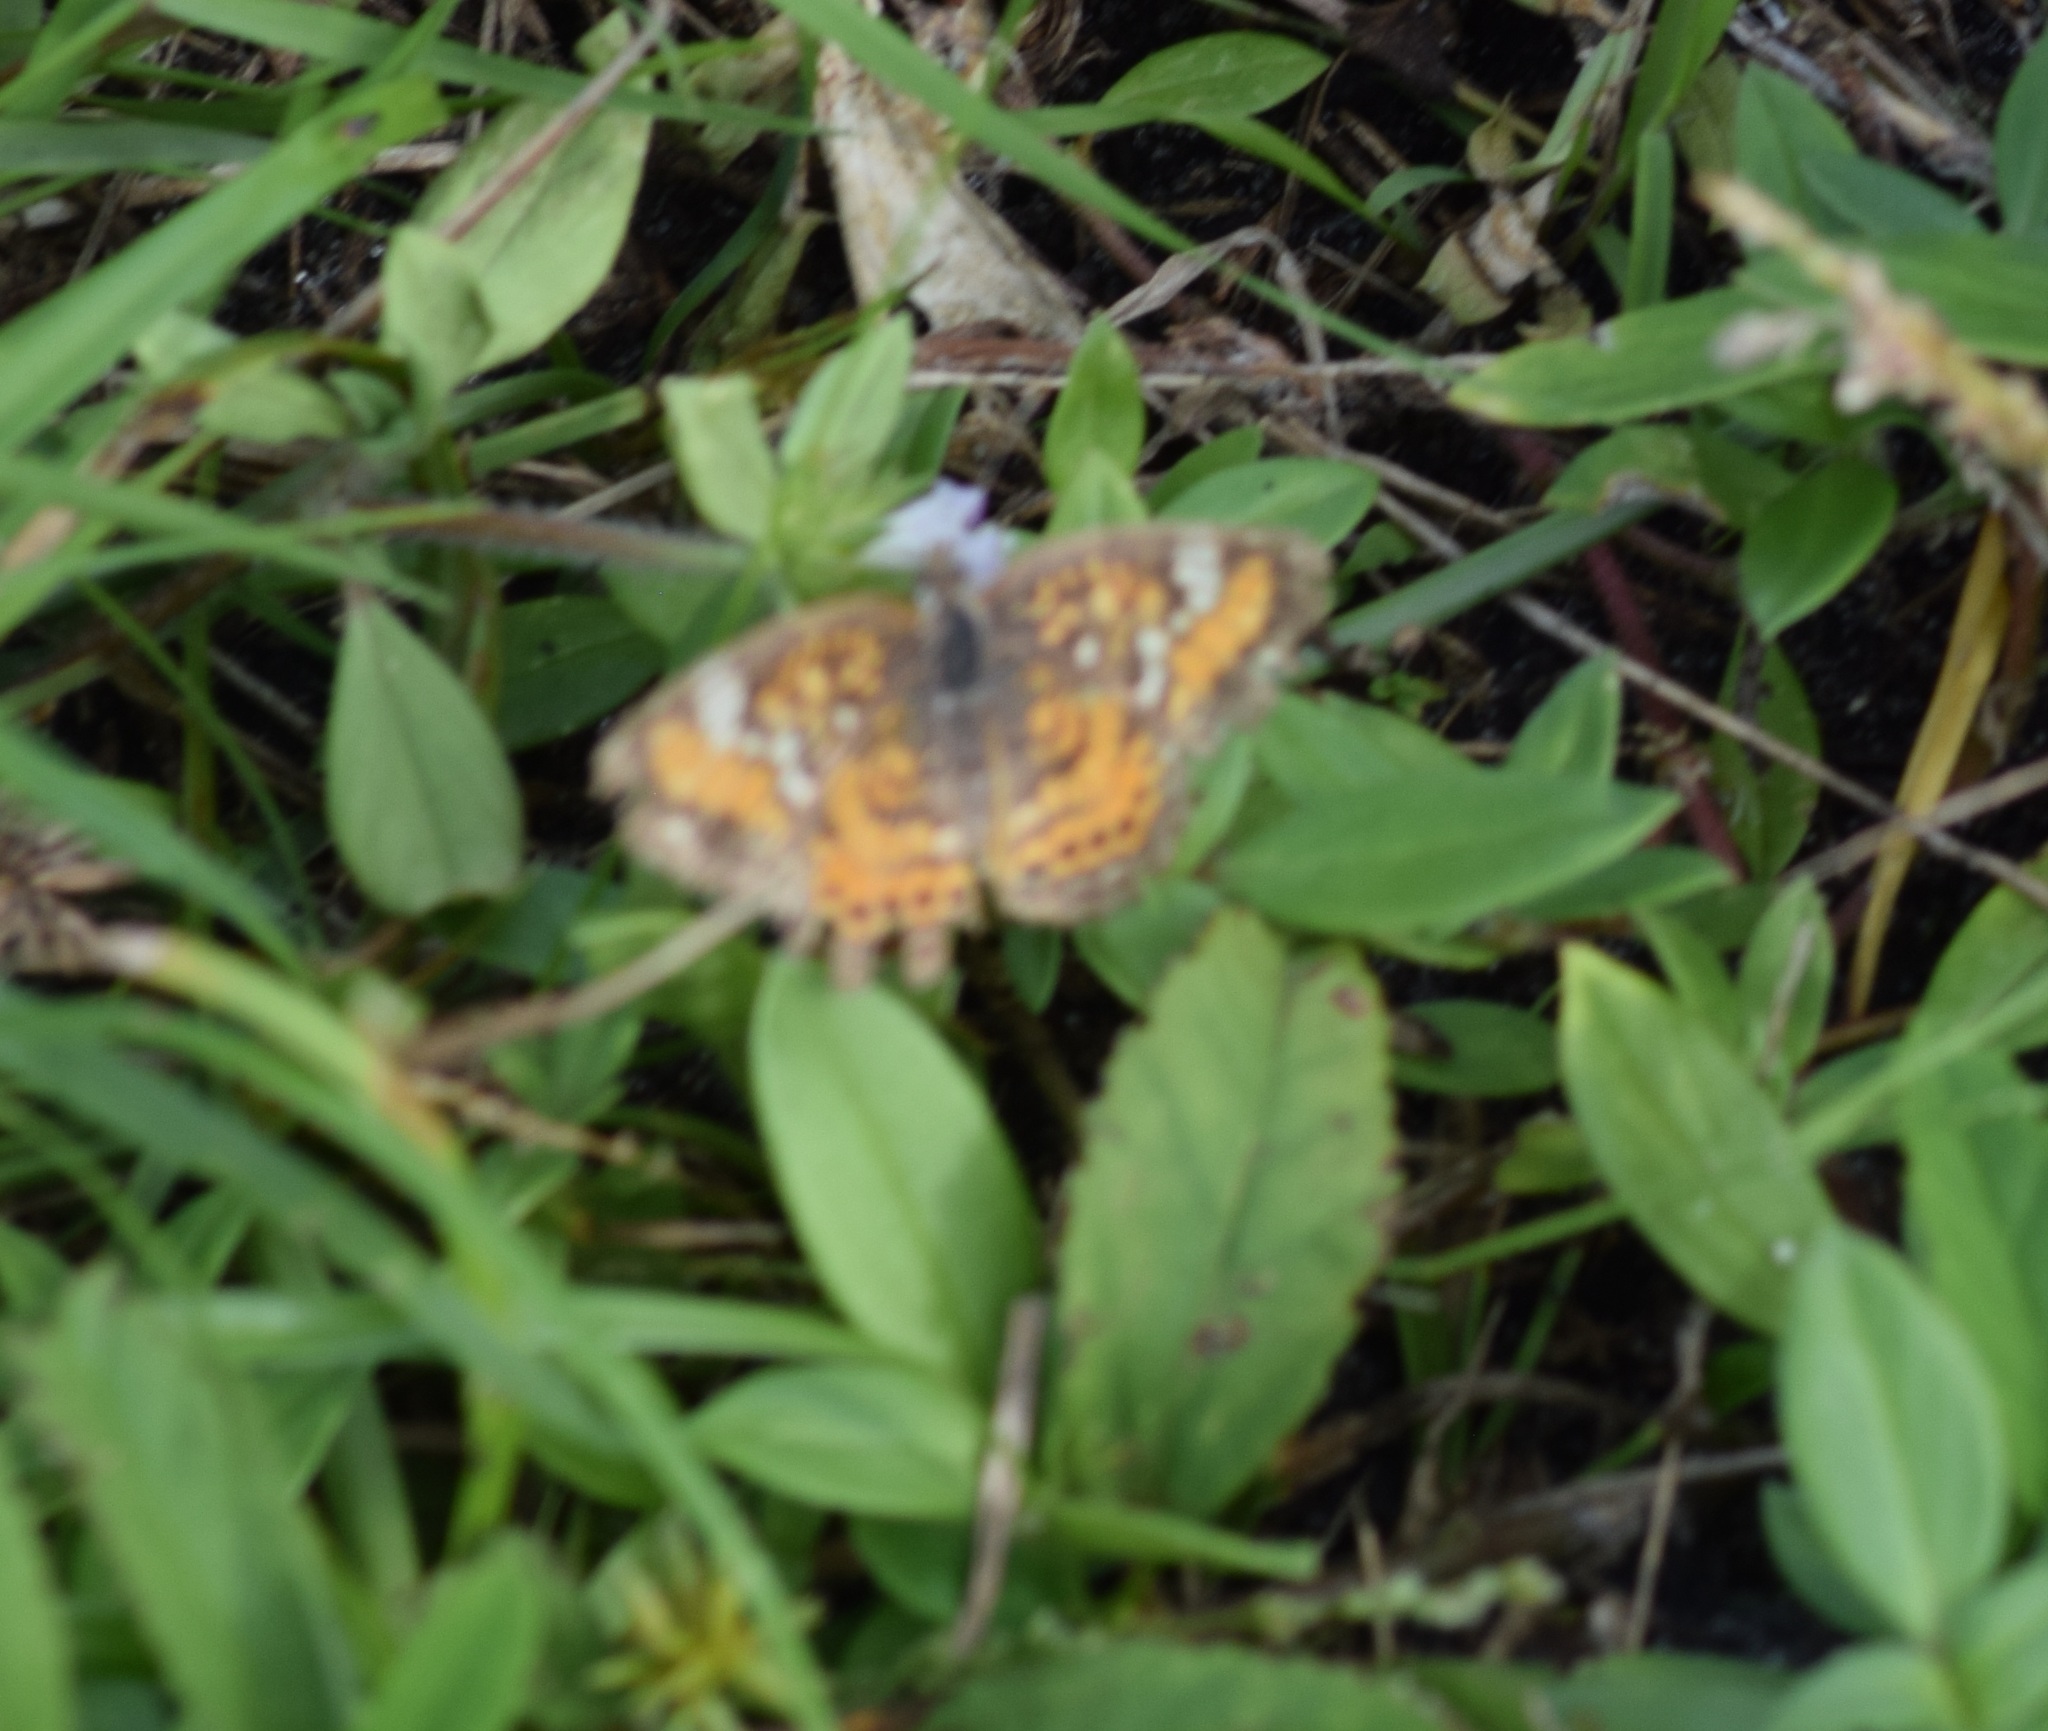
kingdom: Animalia
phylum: Arthropoda
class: Insecta
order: Lepidoptera
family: Nymphalidae
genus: Phyciodes
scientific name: Phyciodes phaon
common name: Phaon crescent
